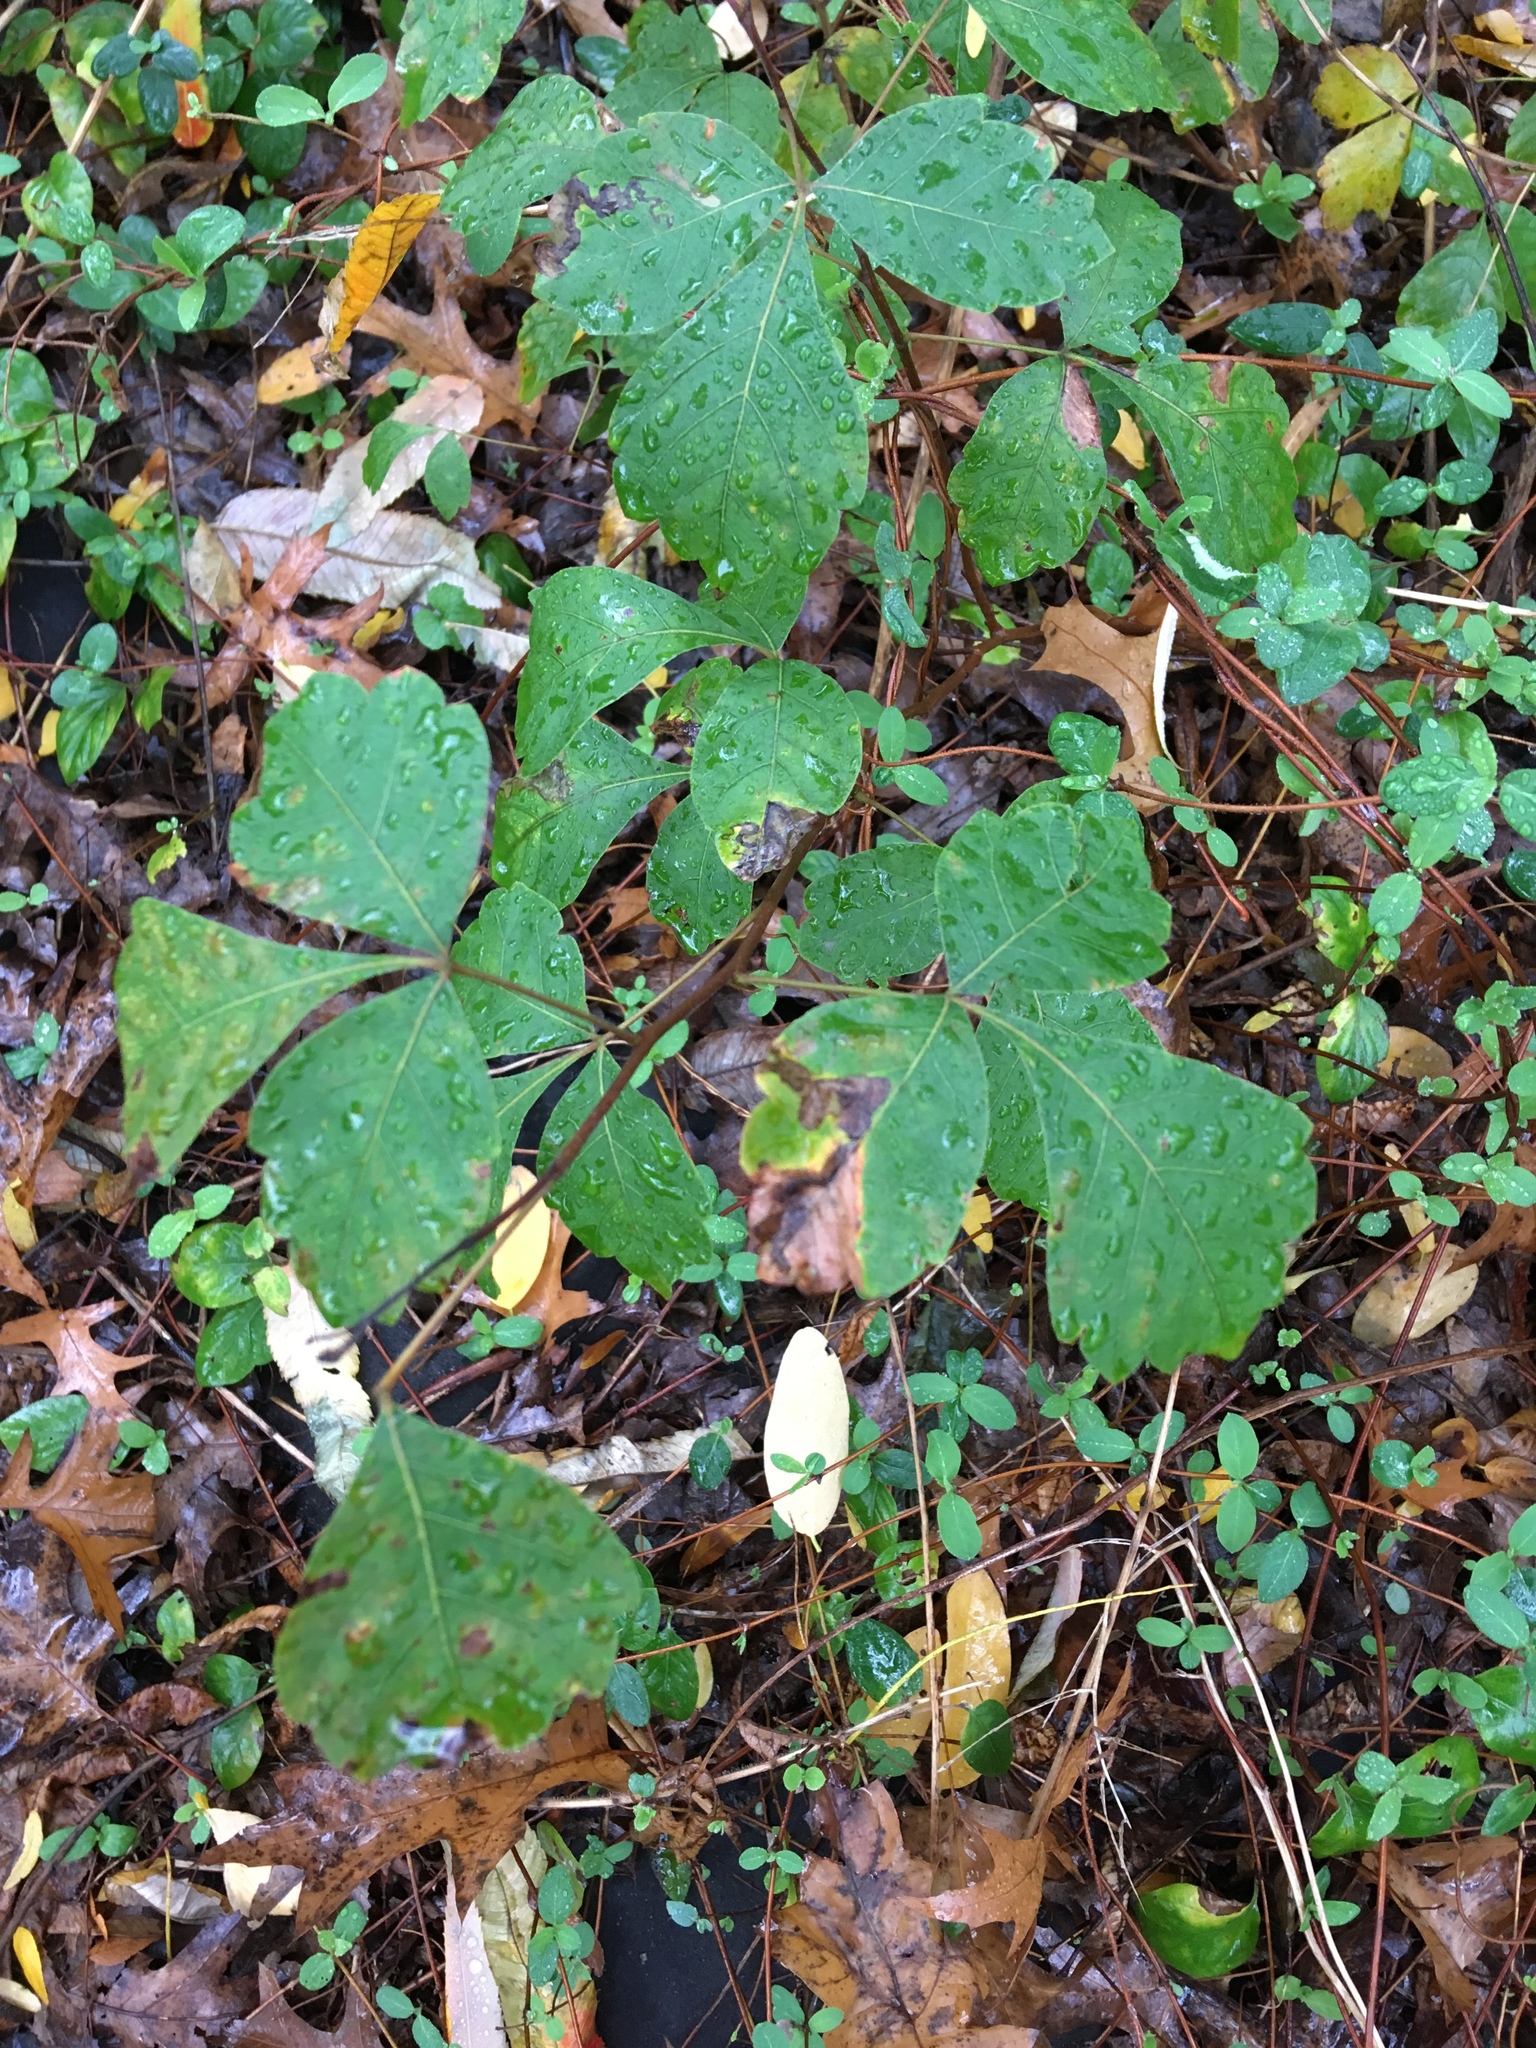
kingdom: Plantae
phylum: Tracheophyta
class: Magnoliopsida
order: Sapindales
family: Anacardiaceae
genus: Rhus
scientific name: Rhus aromatica
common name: Aromatic sumac
